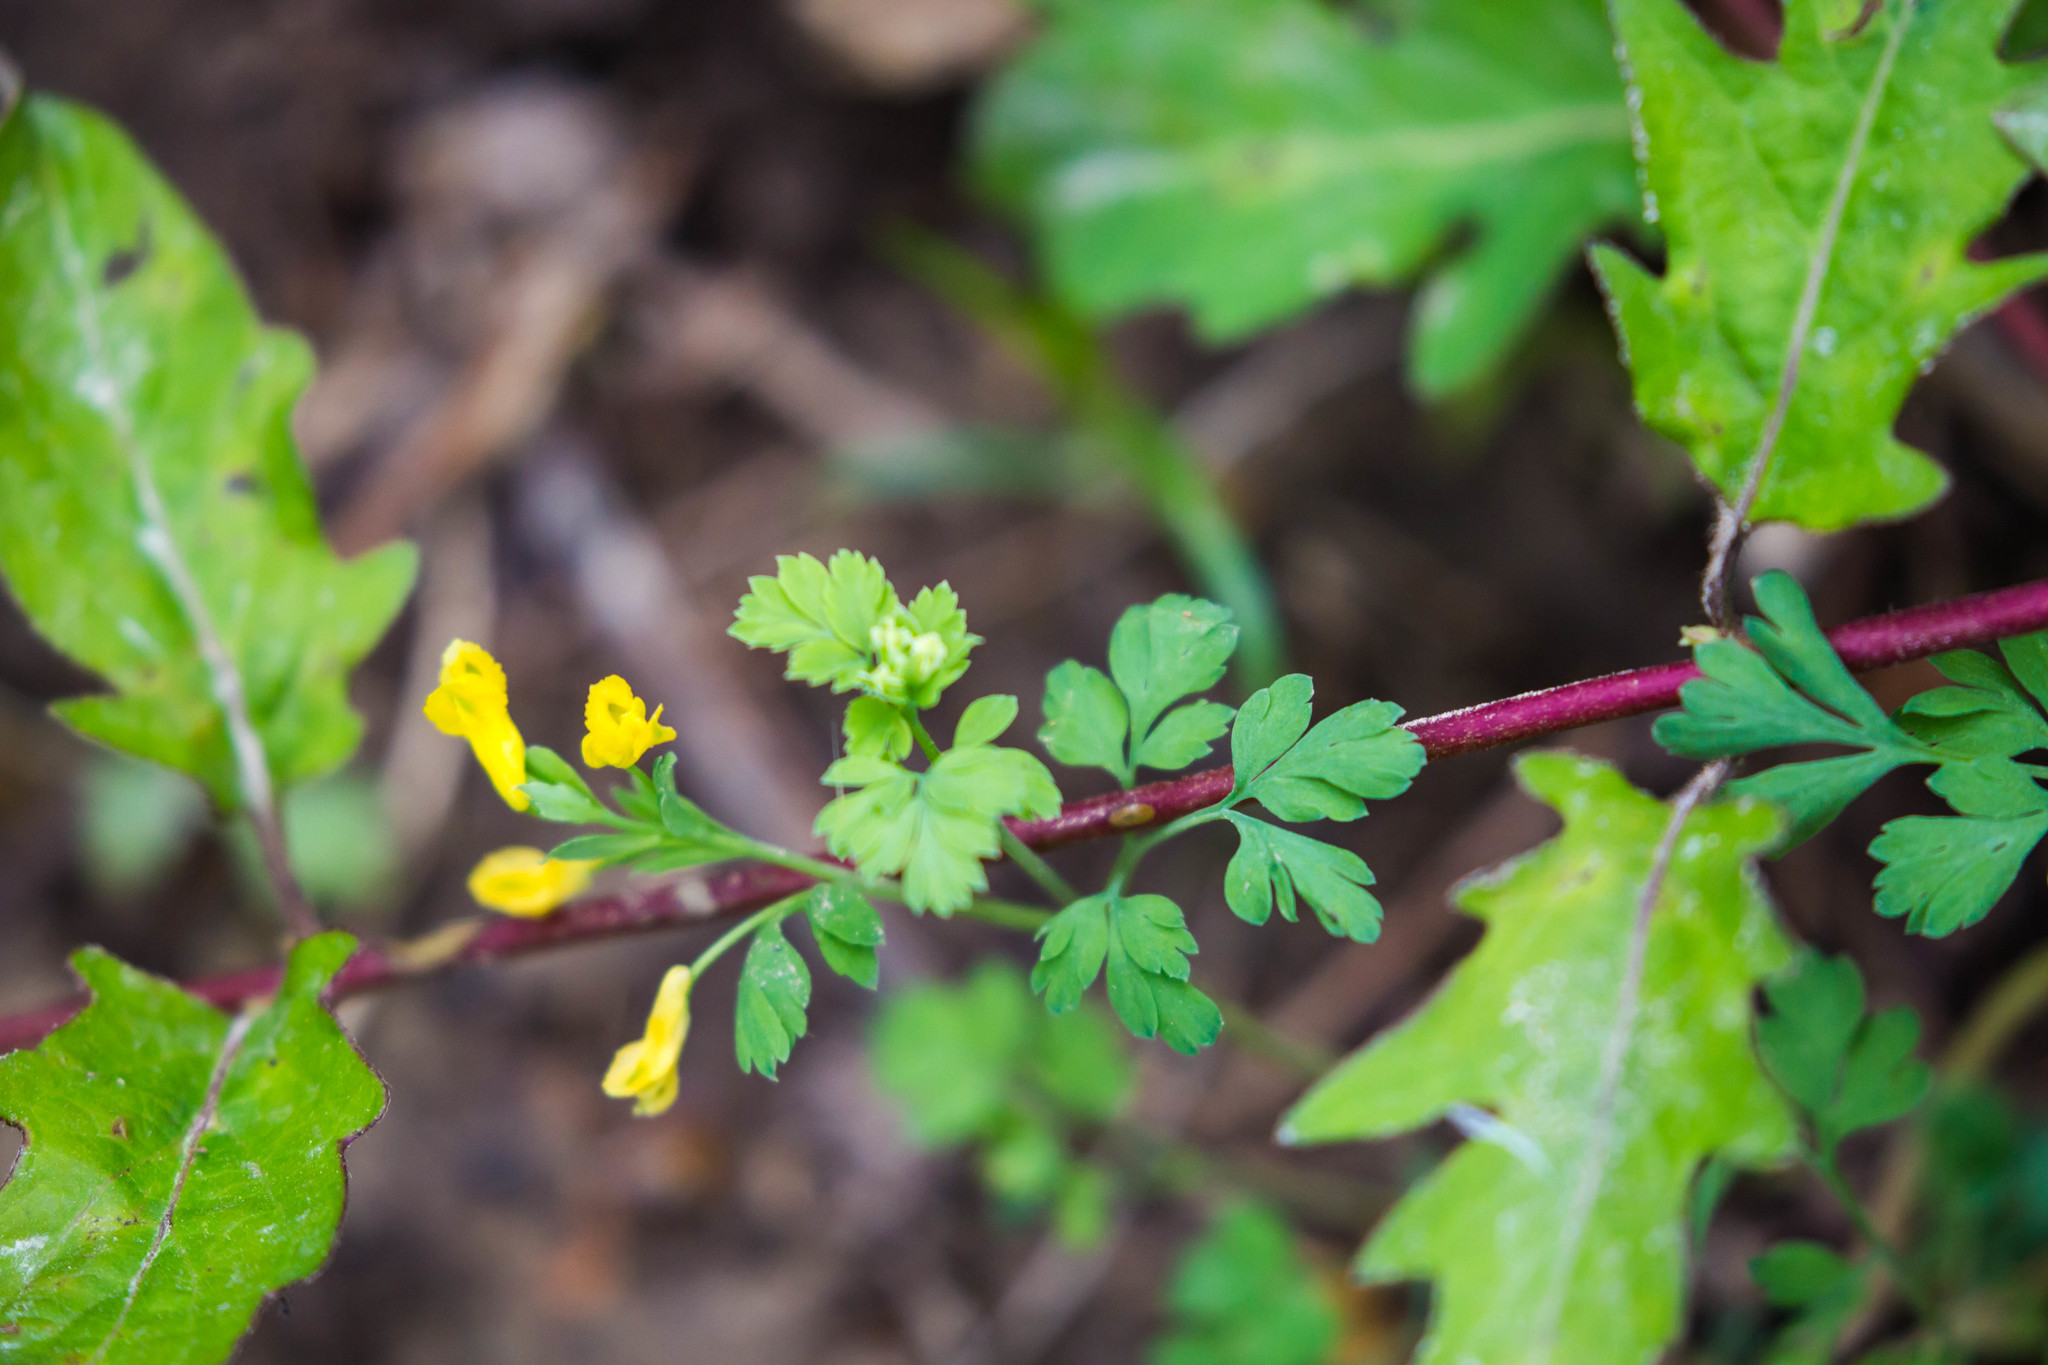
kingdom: Plantae
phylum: Tracheophyta
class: Magnoliopsida
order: Ranunculales
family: Papaveraceae
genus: Corydalis
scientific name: Corydalis flavula
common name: Yellow corydalis
